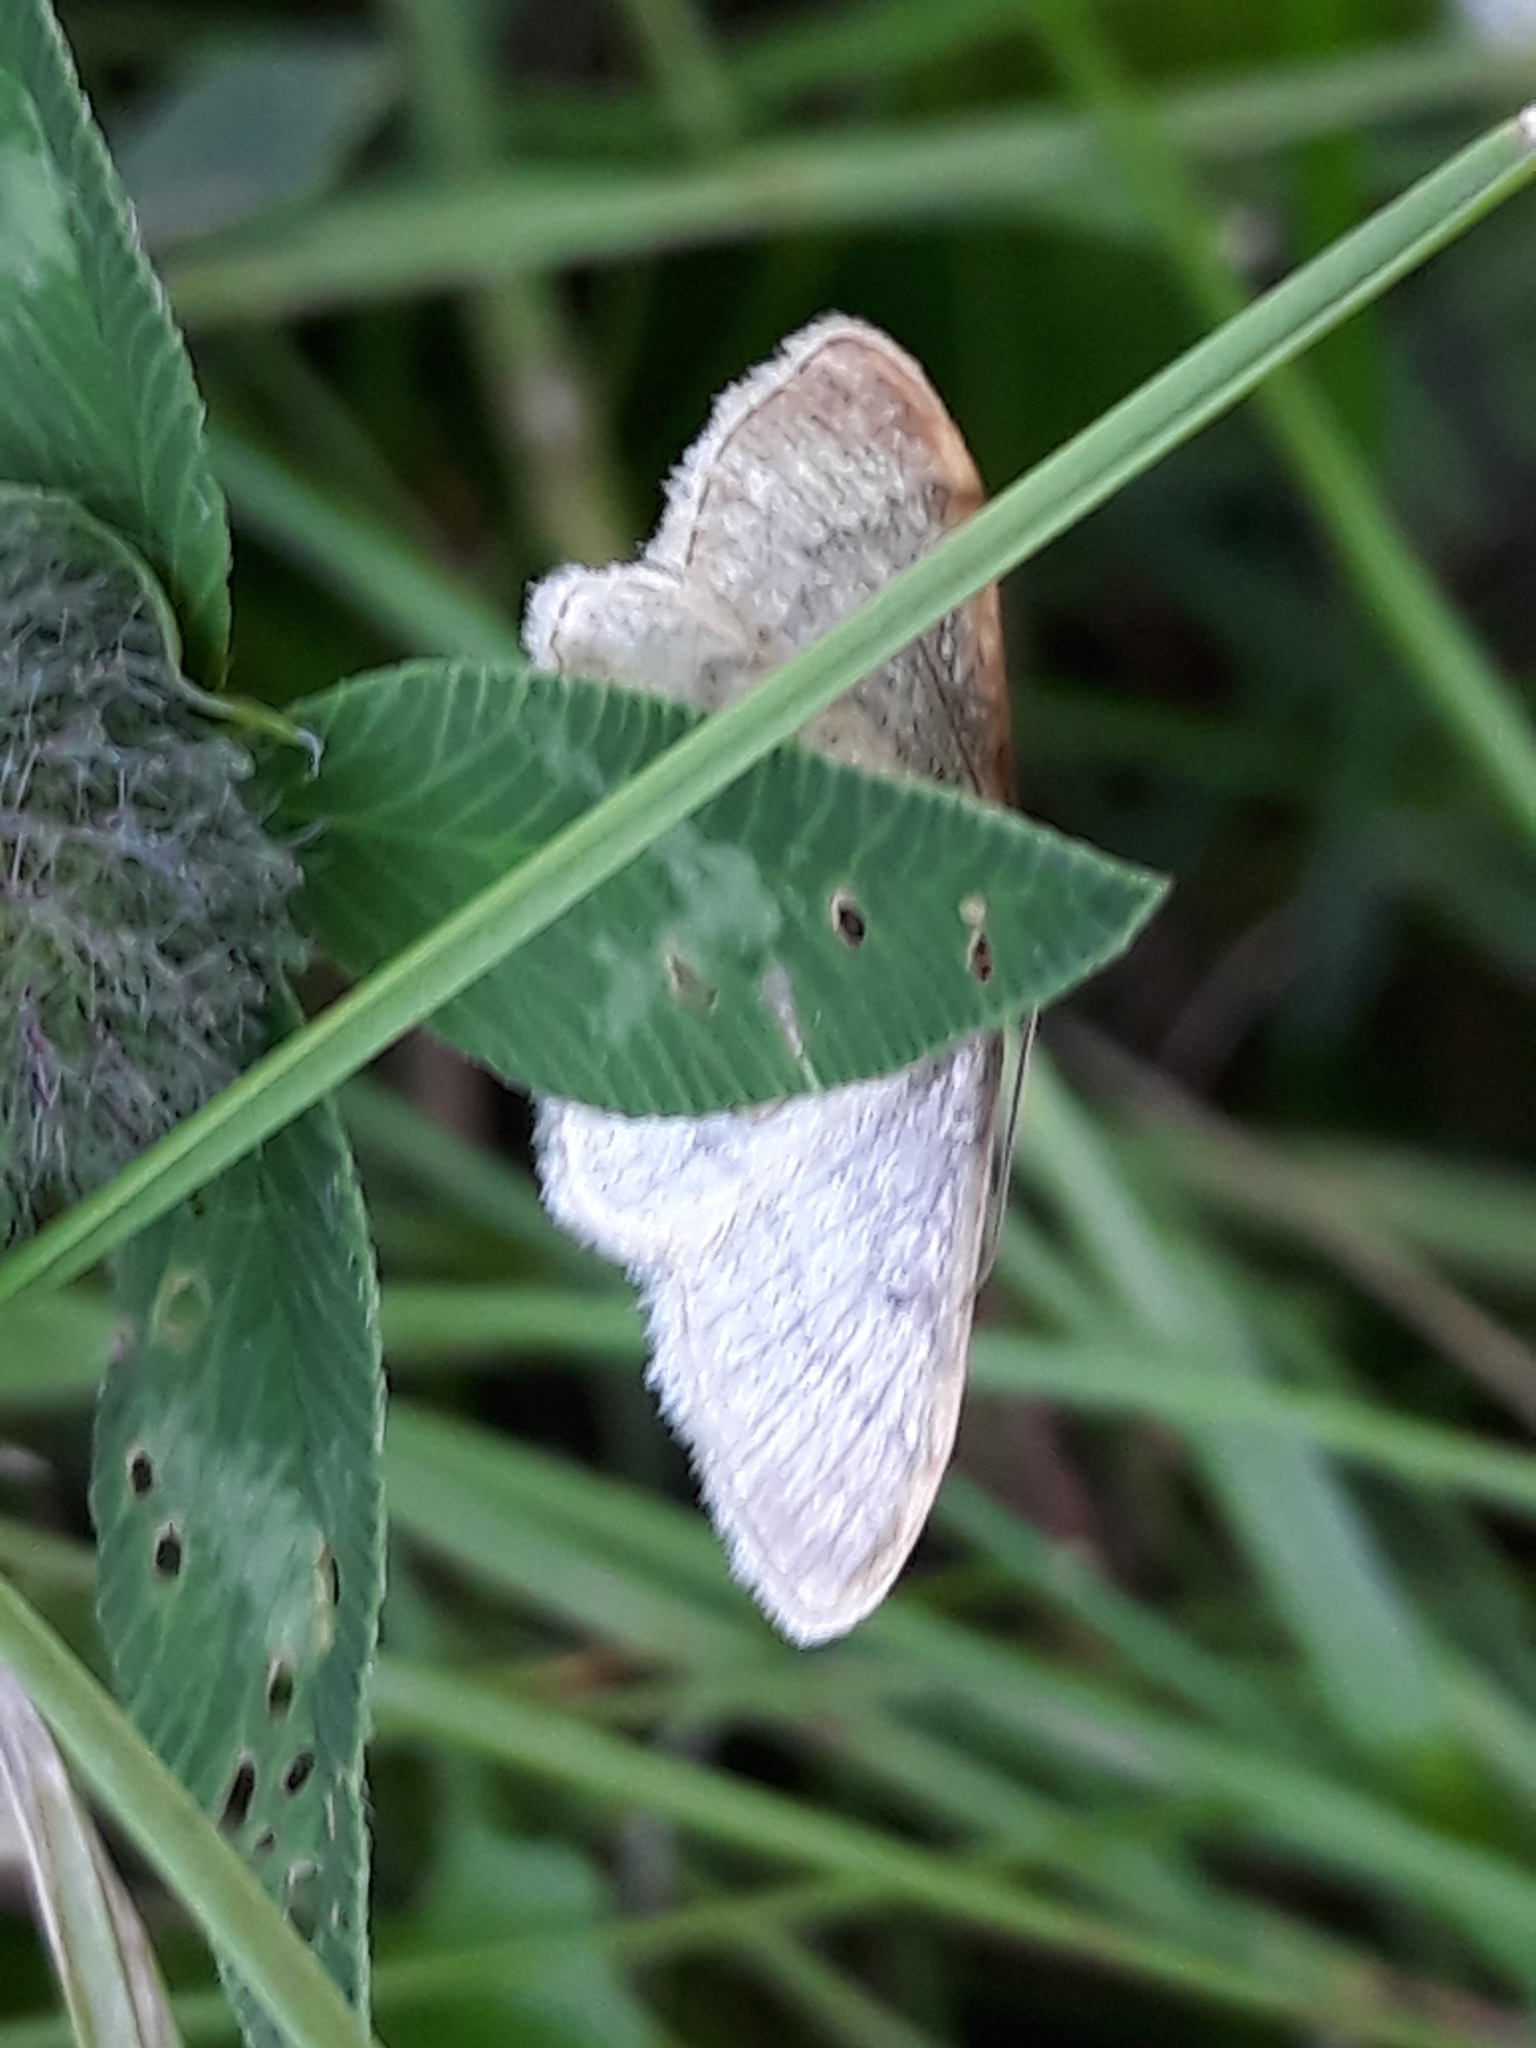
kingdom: Animalia
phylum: Arthropoda
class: Insecta
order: Lepidoptera
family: Geometridae
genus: Idaea
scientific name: Idaea humiliata
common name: Isle of wight wave
